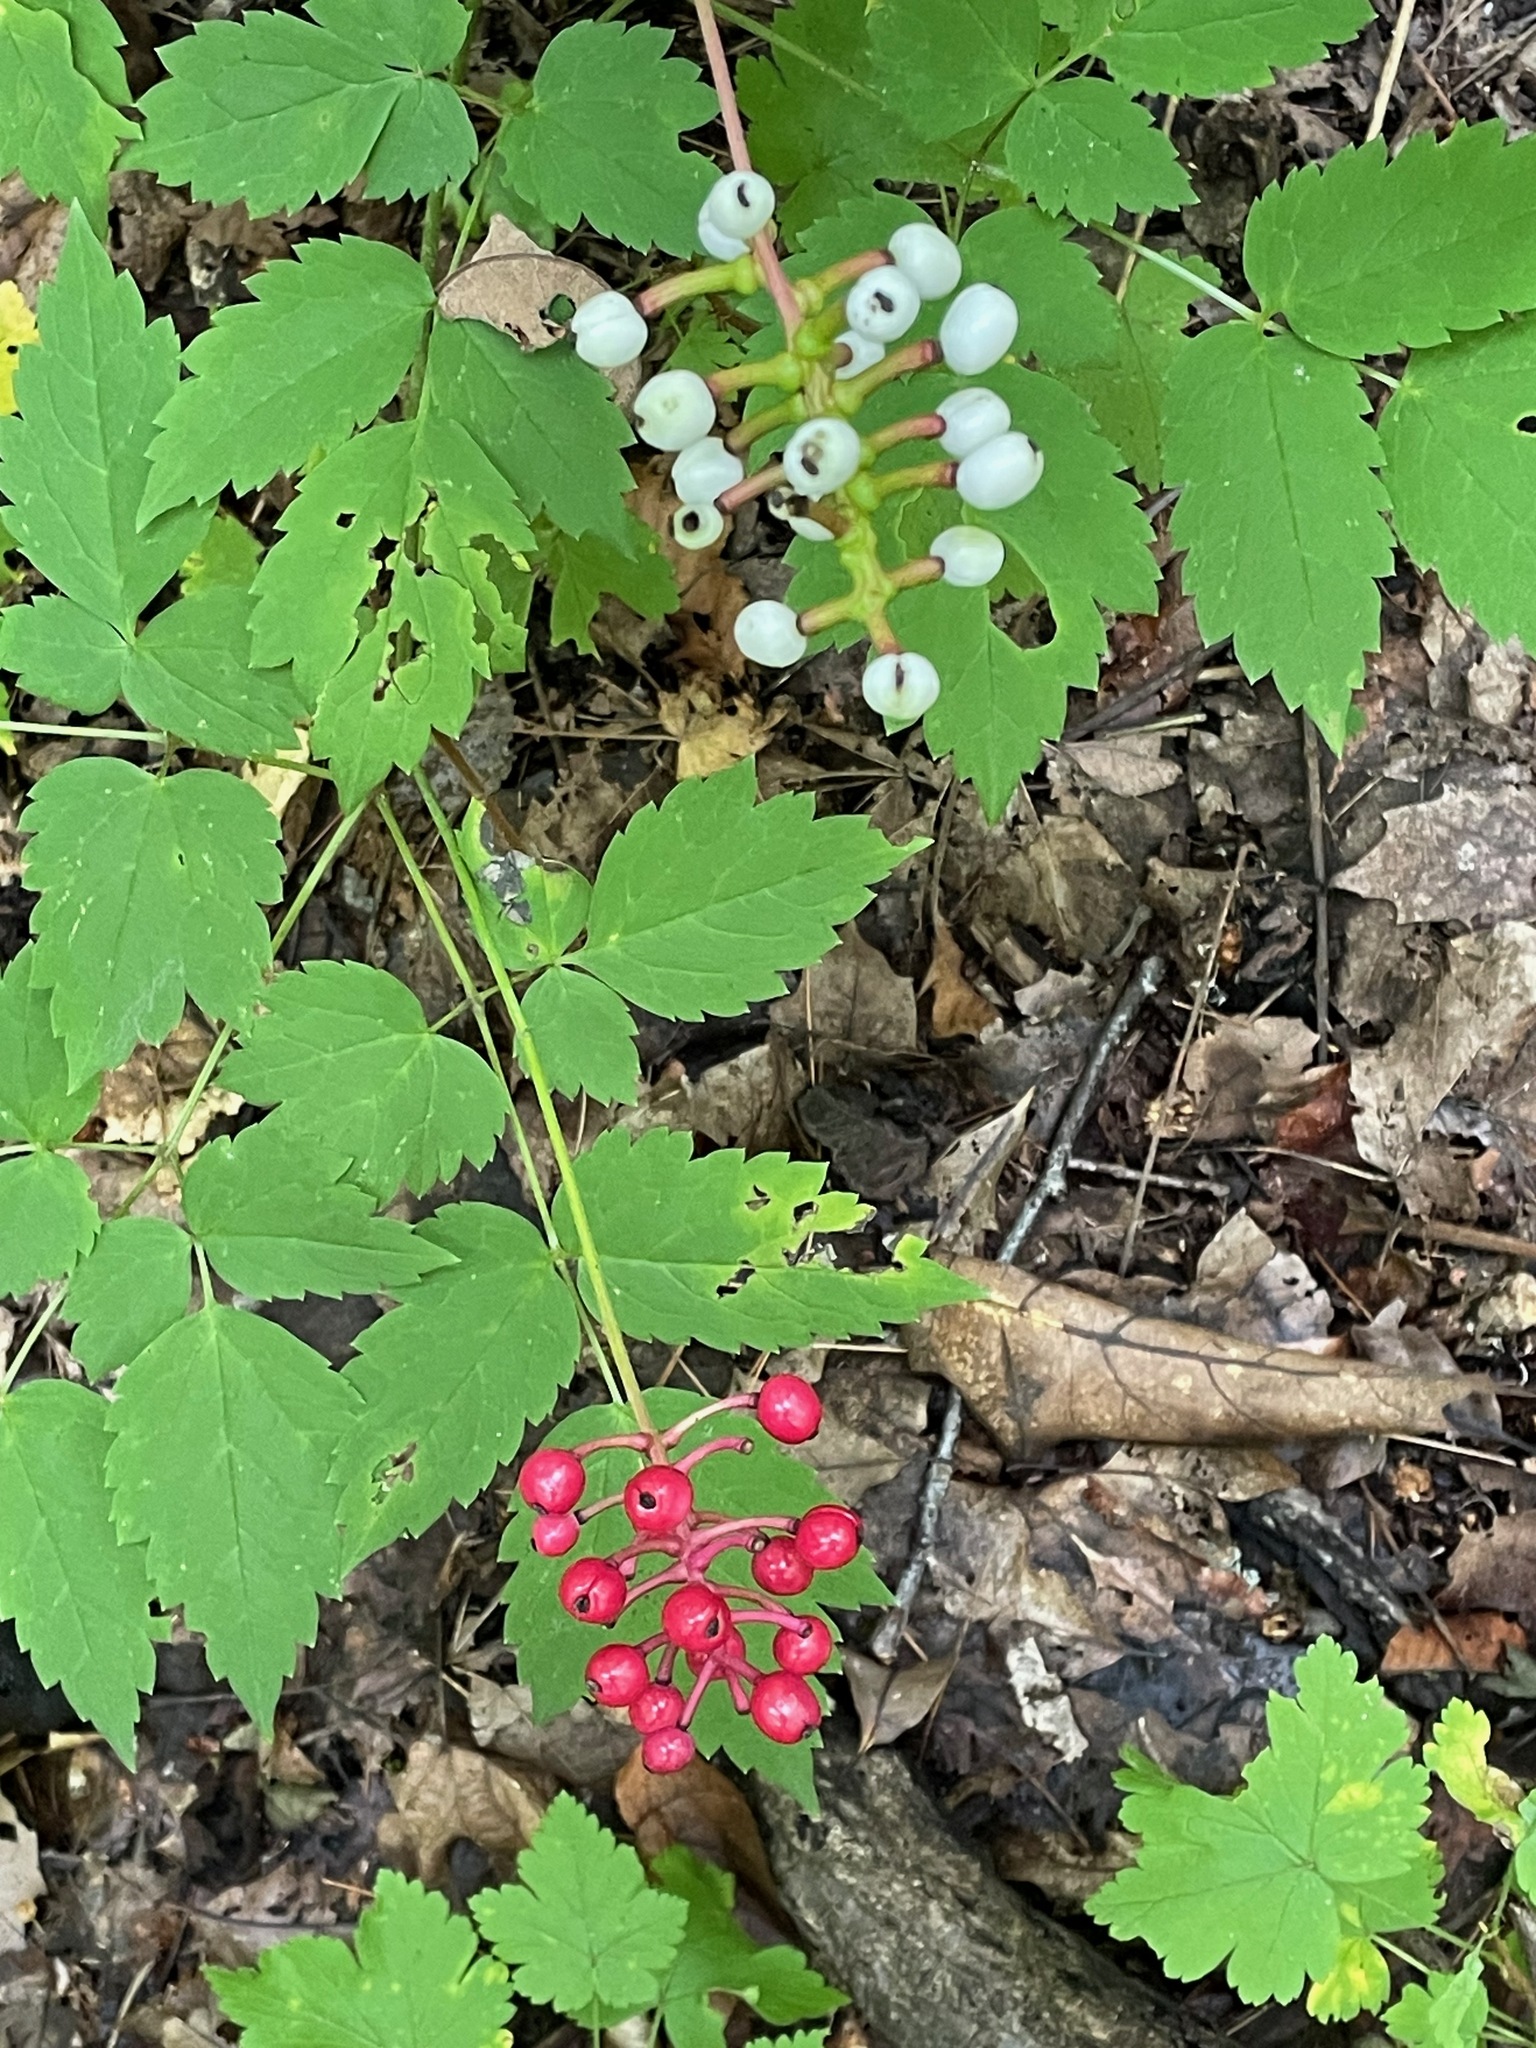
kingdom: Plantae
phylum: Tracheophyta
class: Magnoliopsida
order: Ranunculales
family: Ranunculaceae
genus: Actaea
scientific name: Actaea ludovici
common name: Ludovic's baneberry
